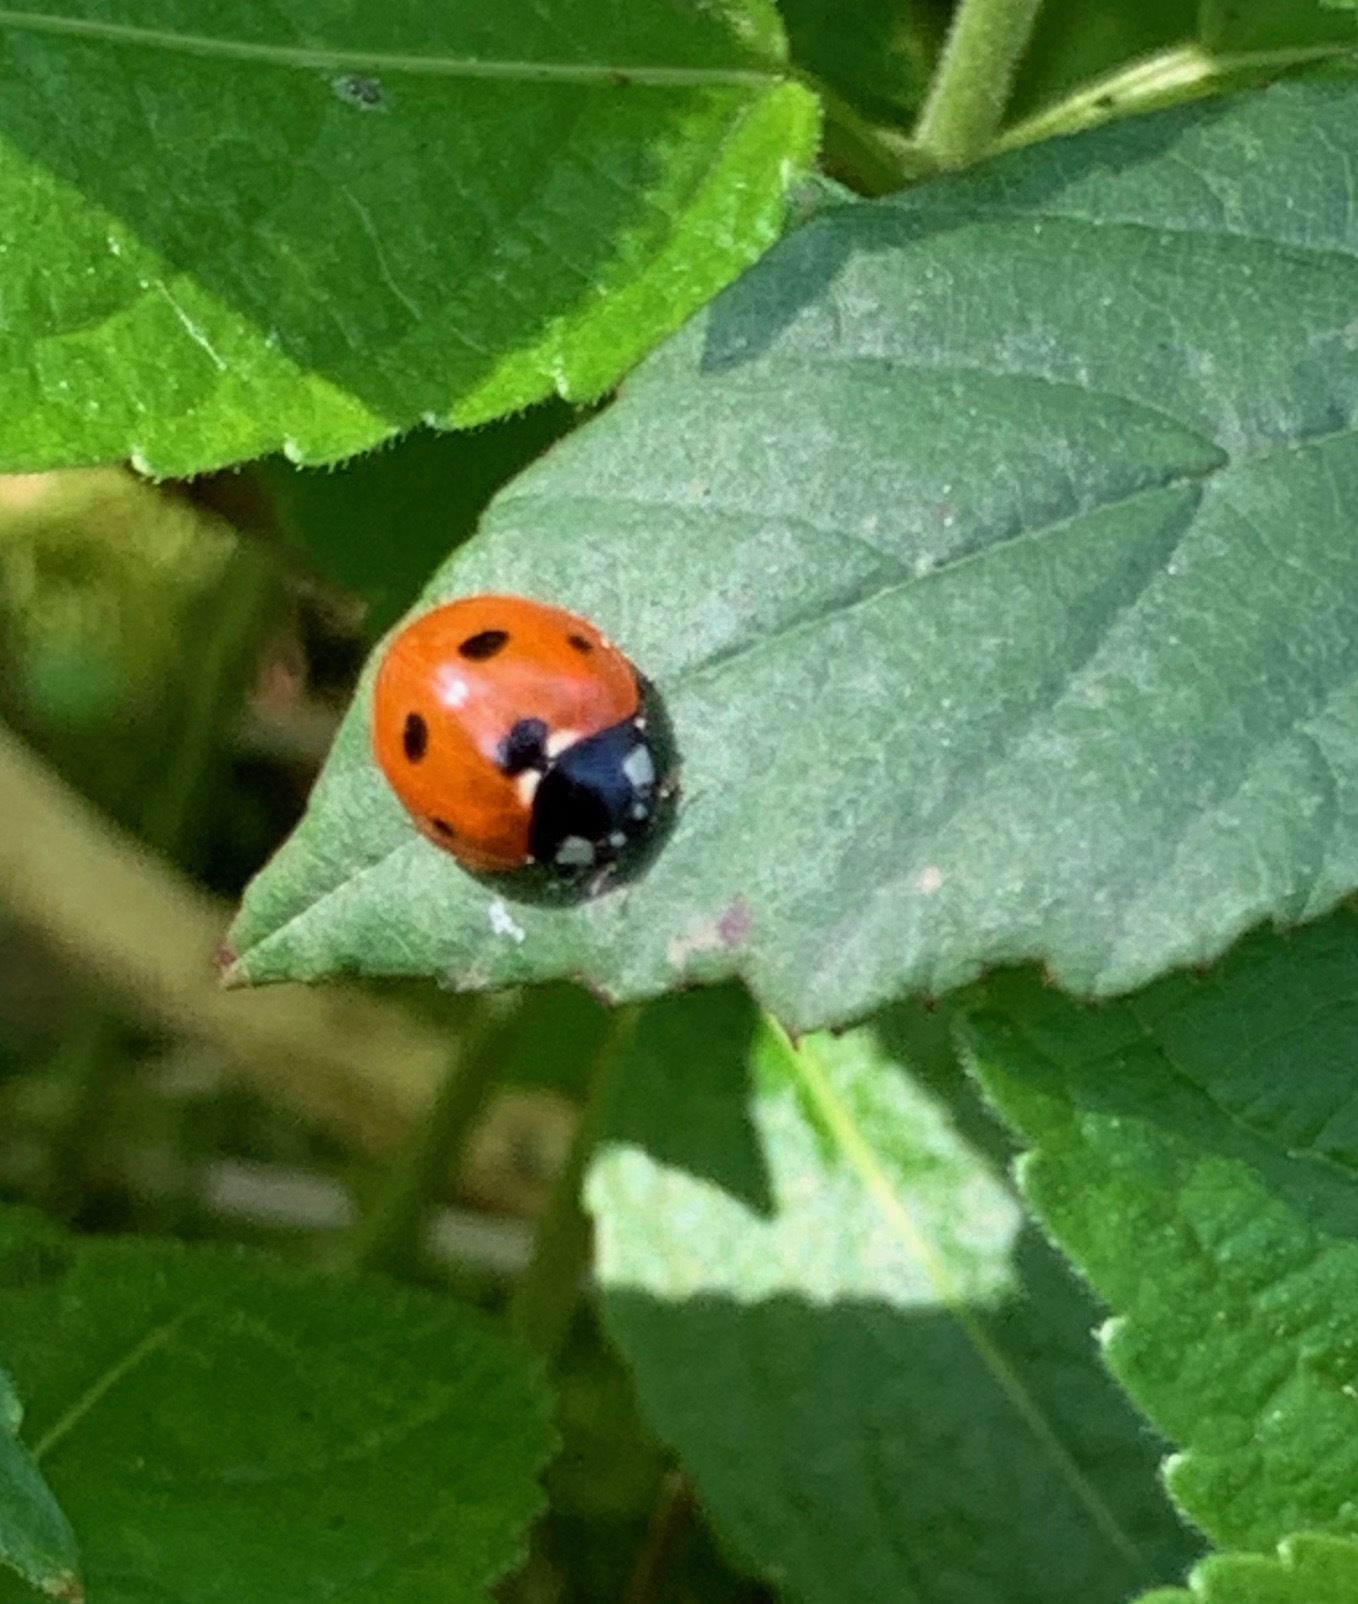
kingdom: Animalia
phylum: Arthropoda
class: Insecta
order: Coleoptera
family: Coccinellidae
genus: Coccinella
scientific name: Coccinella septempunctata
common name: Sevenspotted lady beetle
